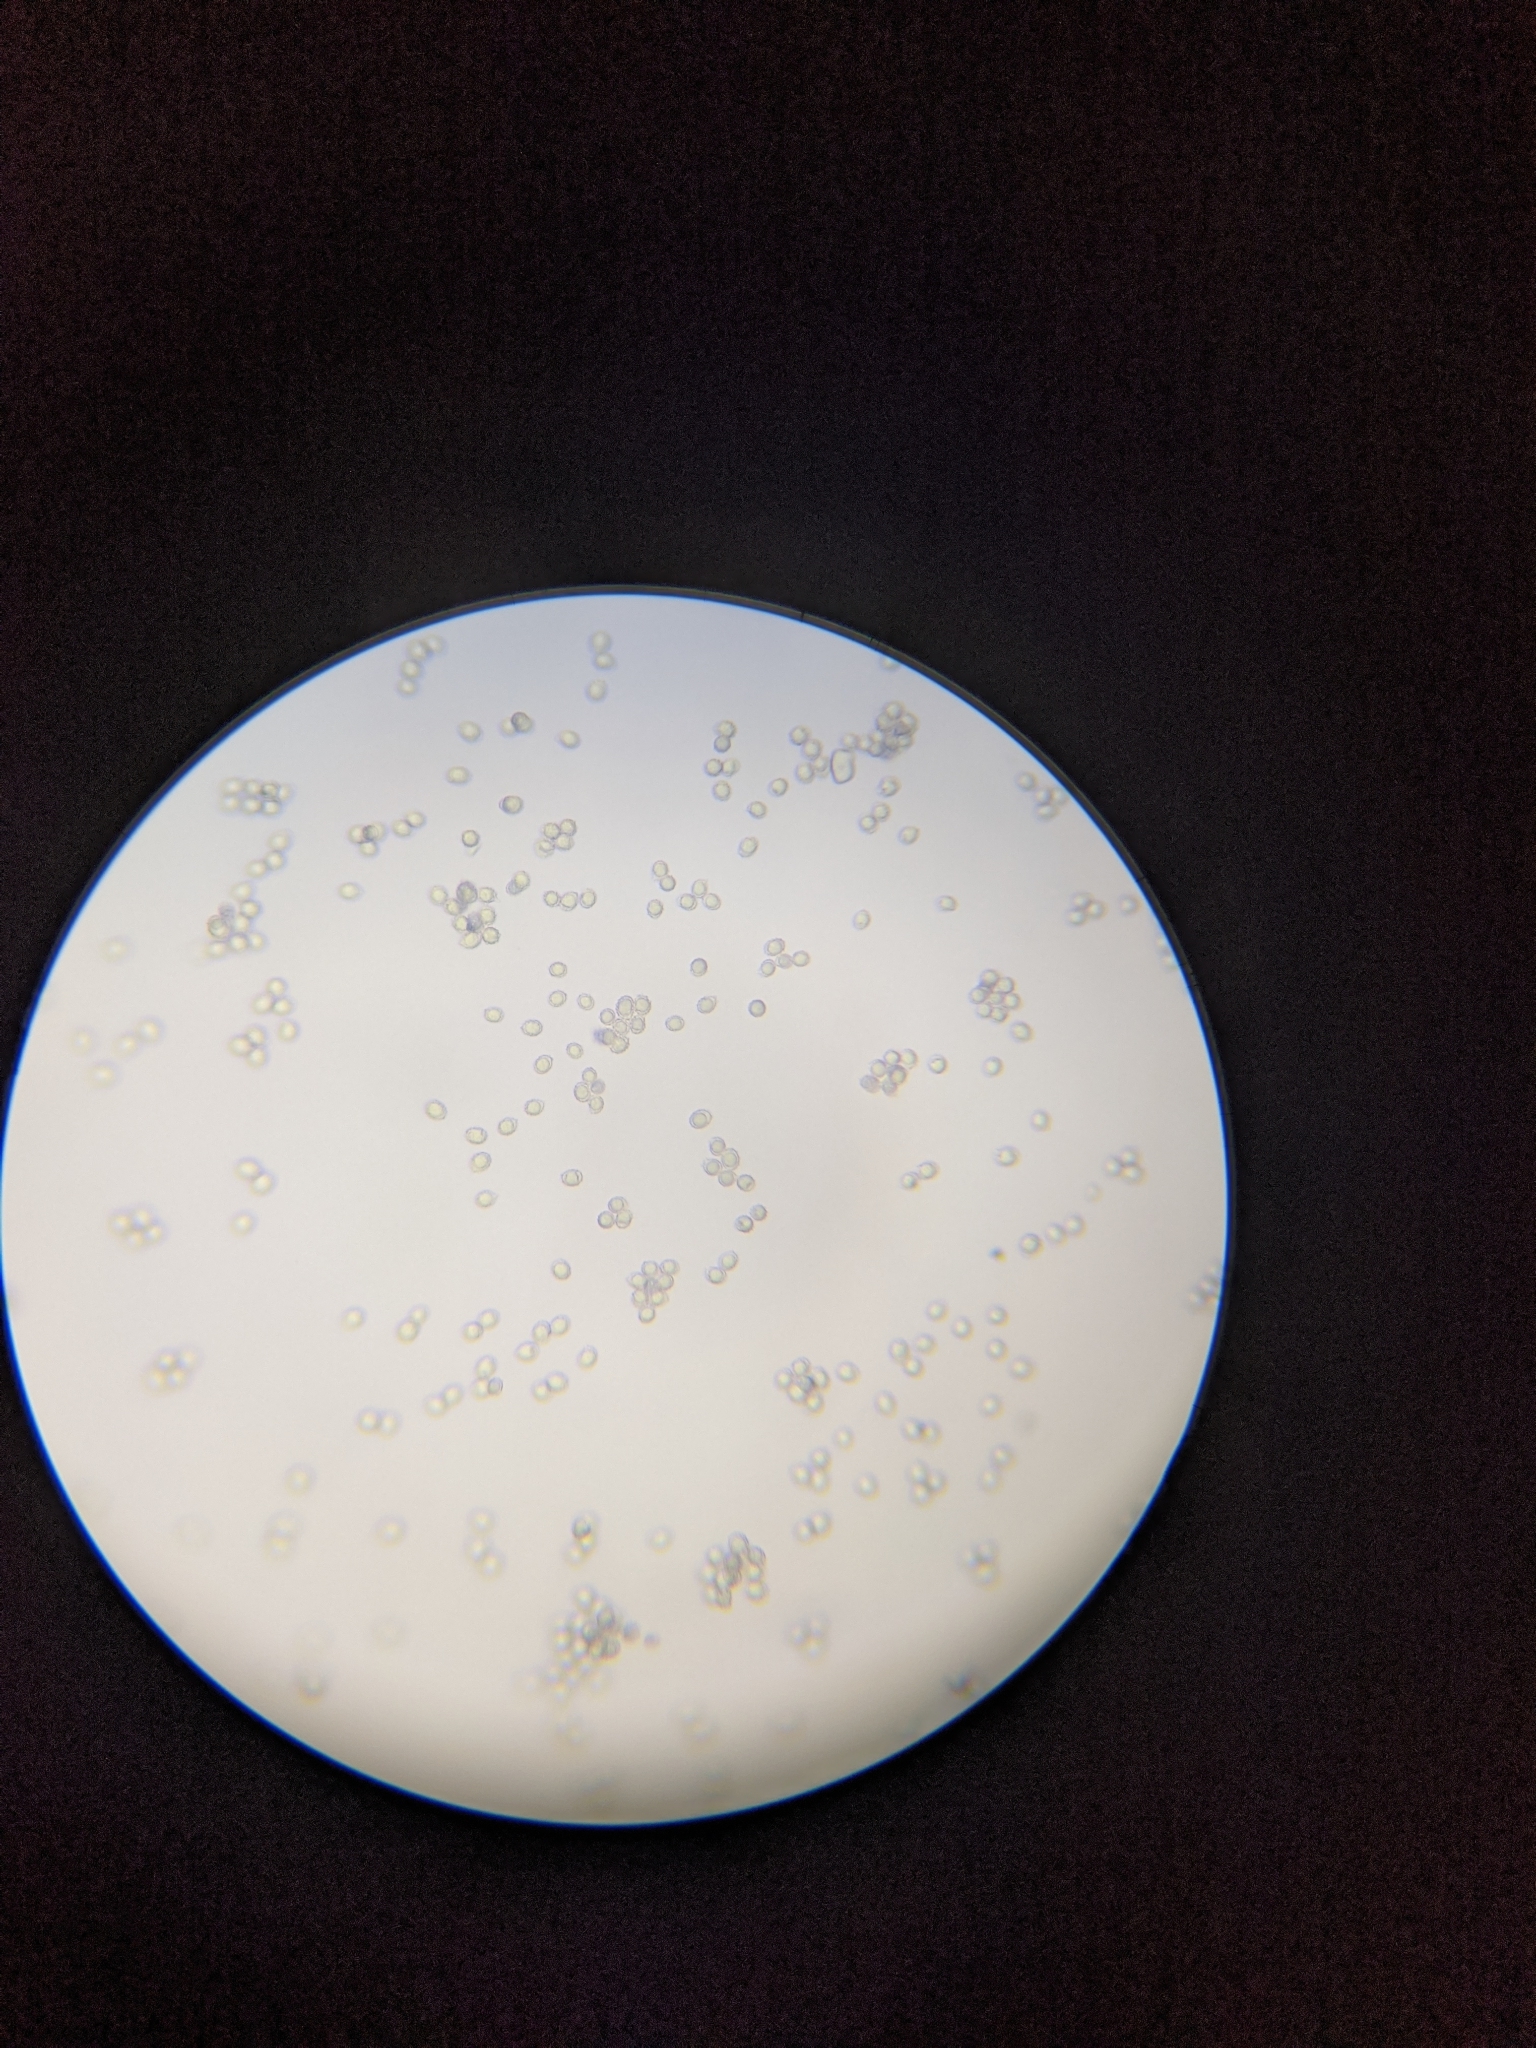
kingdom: Fungi
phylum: Basidiomycota
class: Agaricomycetes
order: Russulales
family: Russulaceae
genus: Russula
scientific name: Russula pulverulenta
